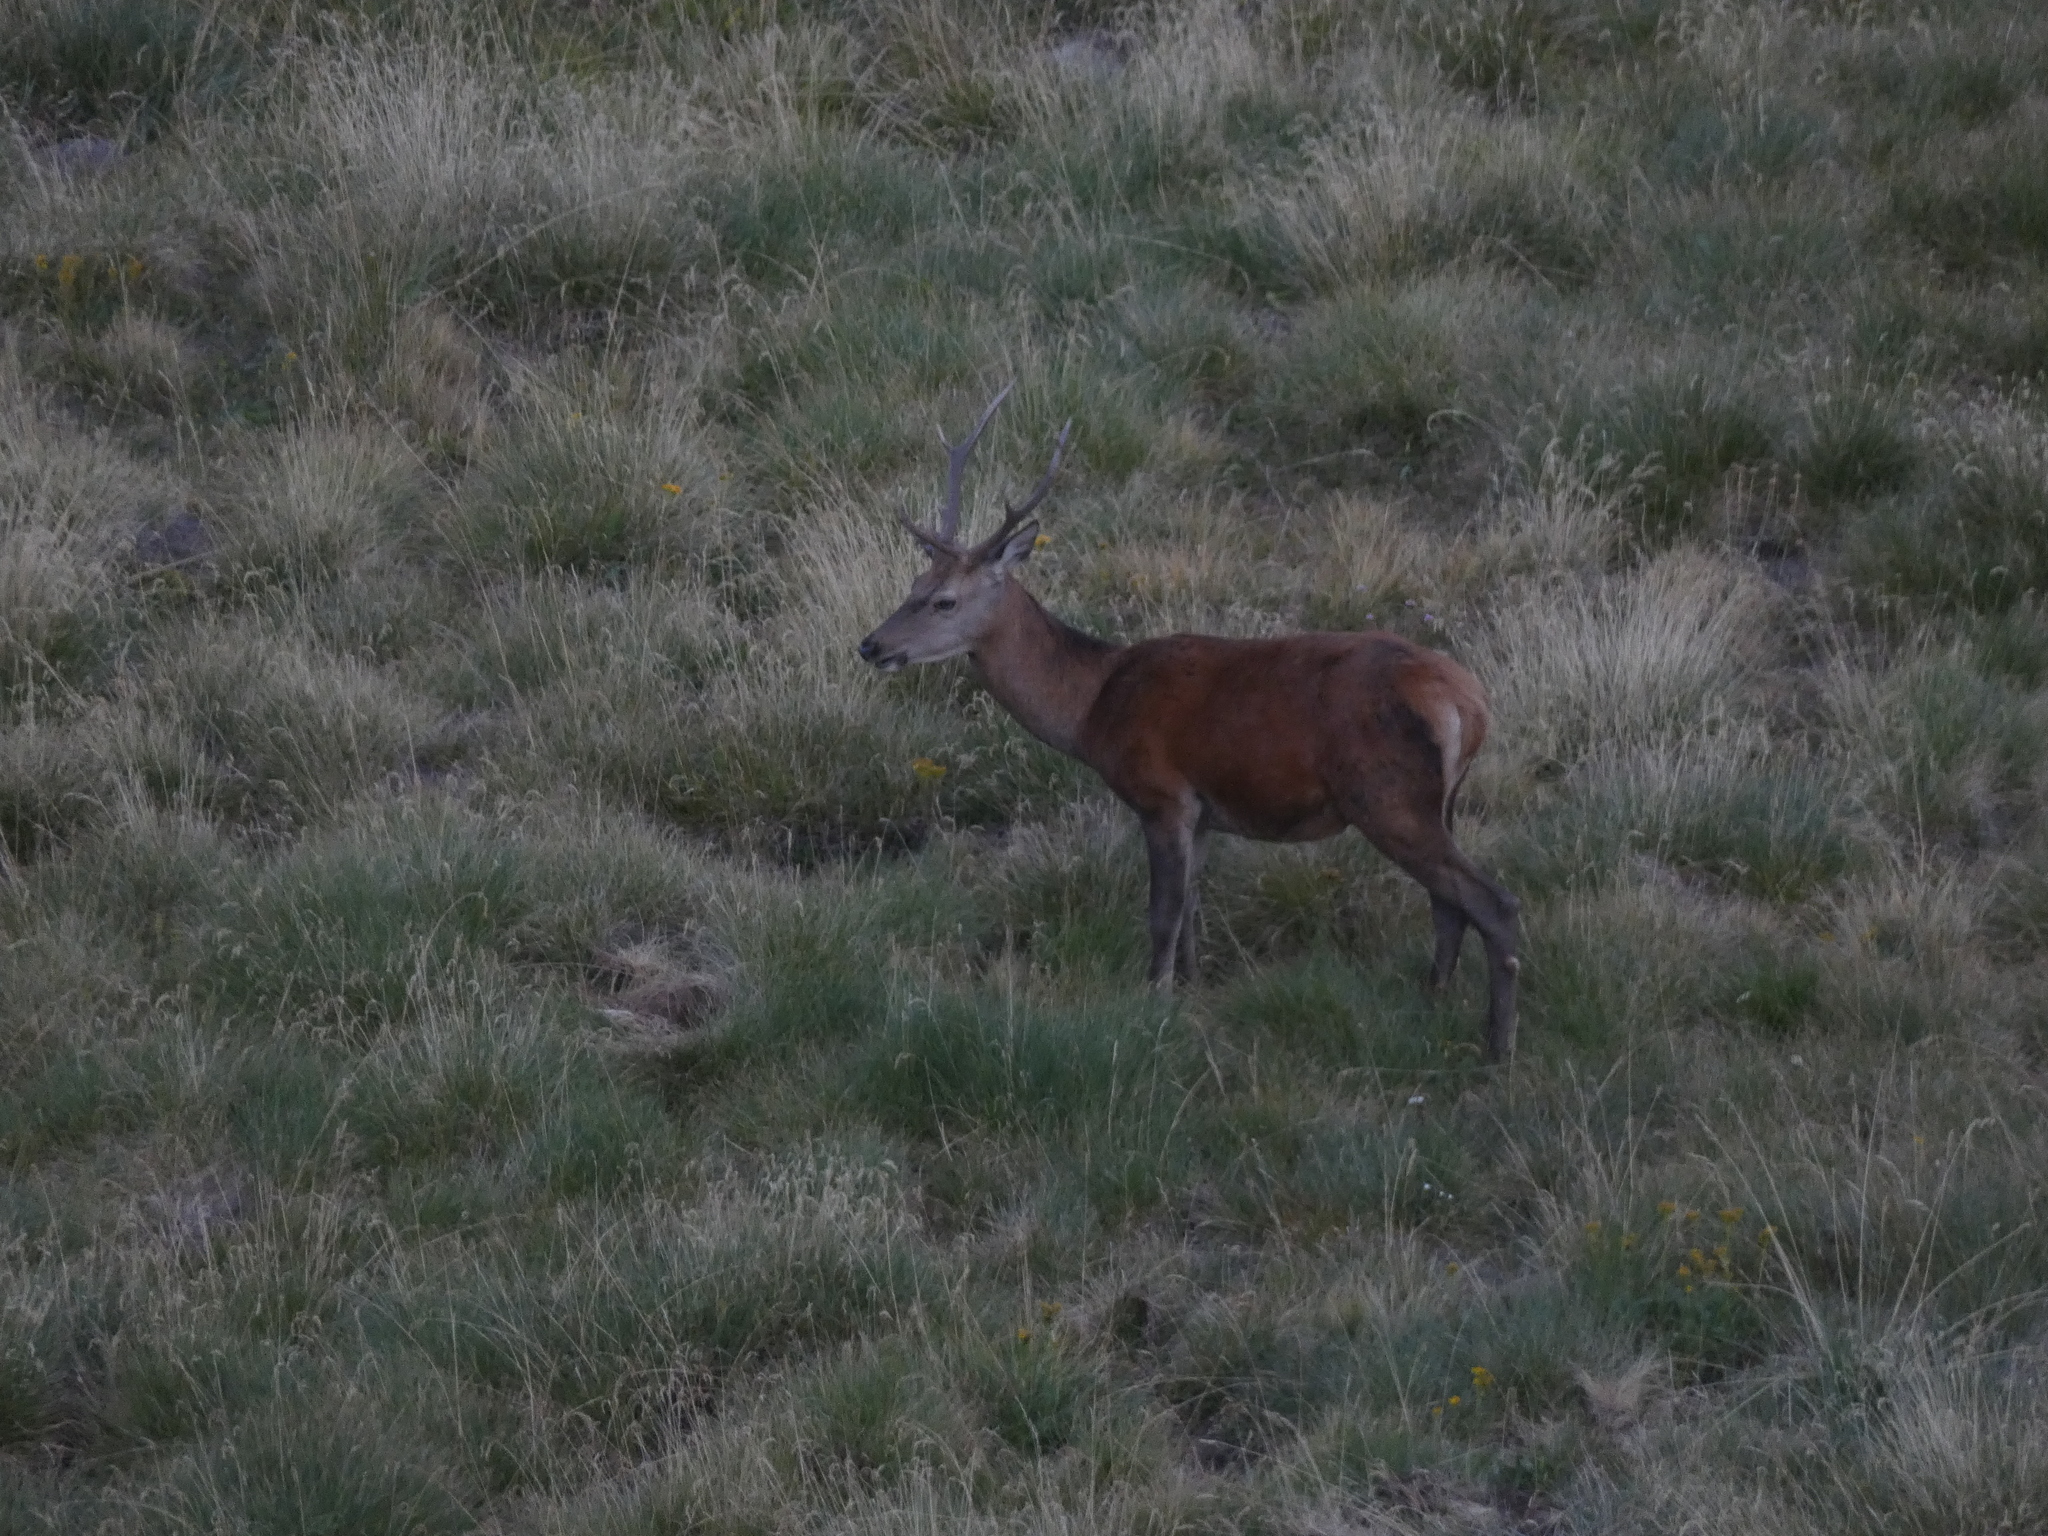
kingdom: Animalia
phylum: Chordata
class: Mammalia
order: Artiodactyla
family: Cervidae
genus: Cervus
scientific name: Cervus elaphus
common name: Red deer
